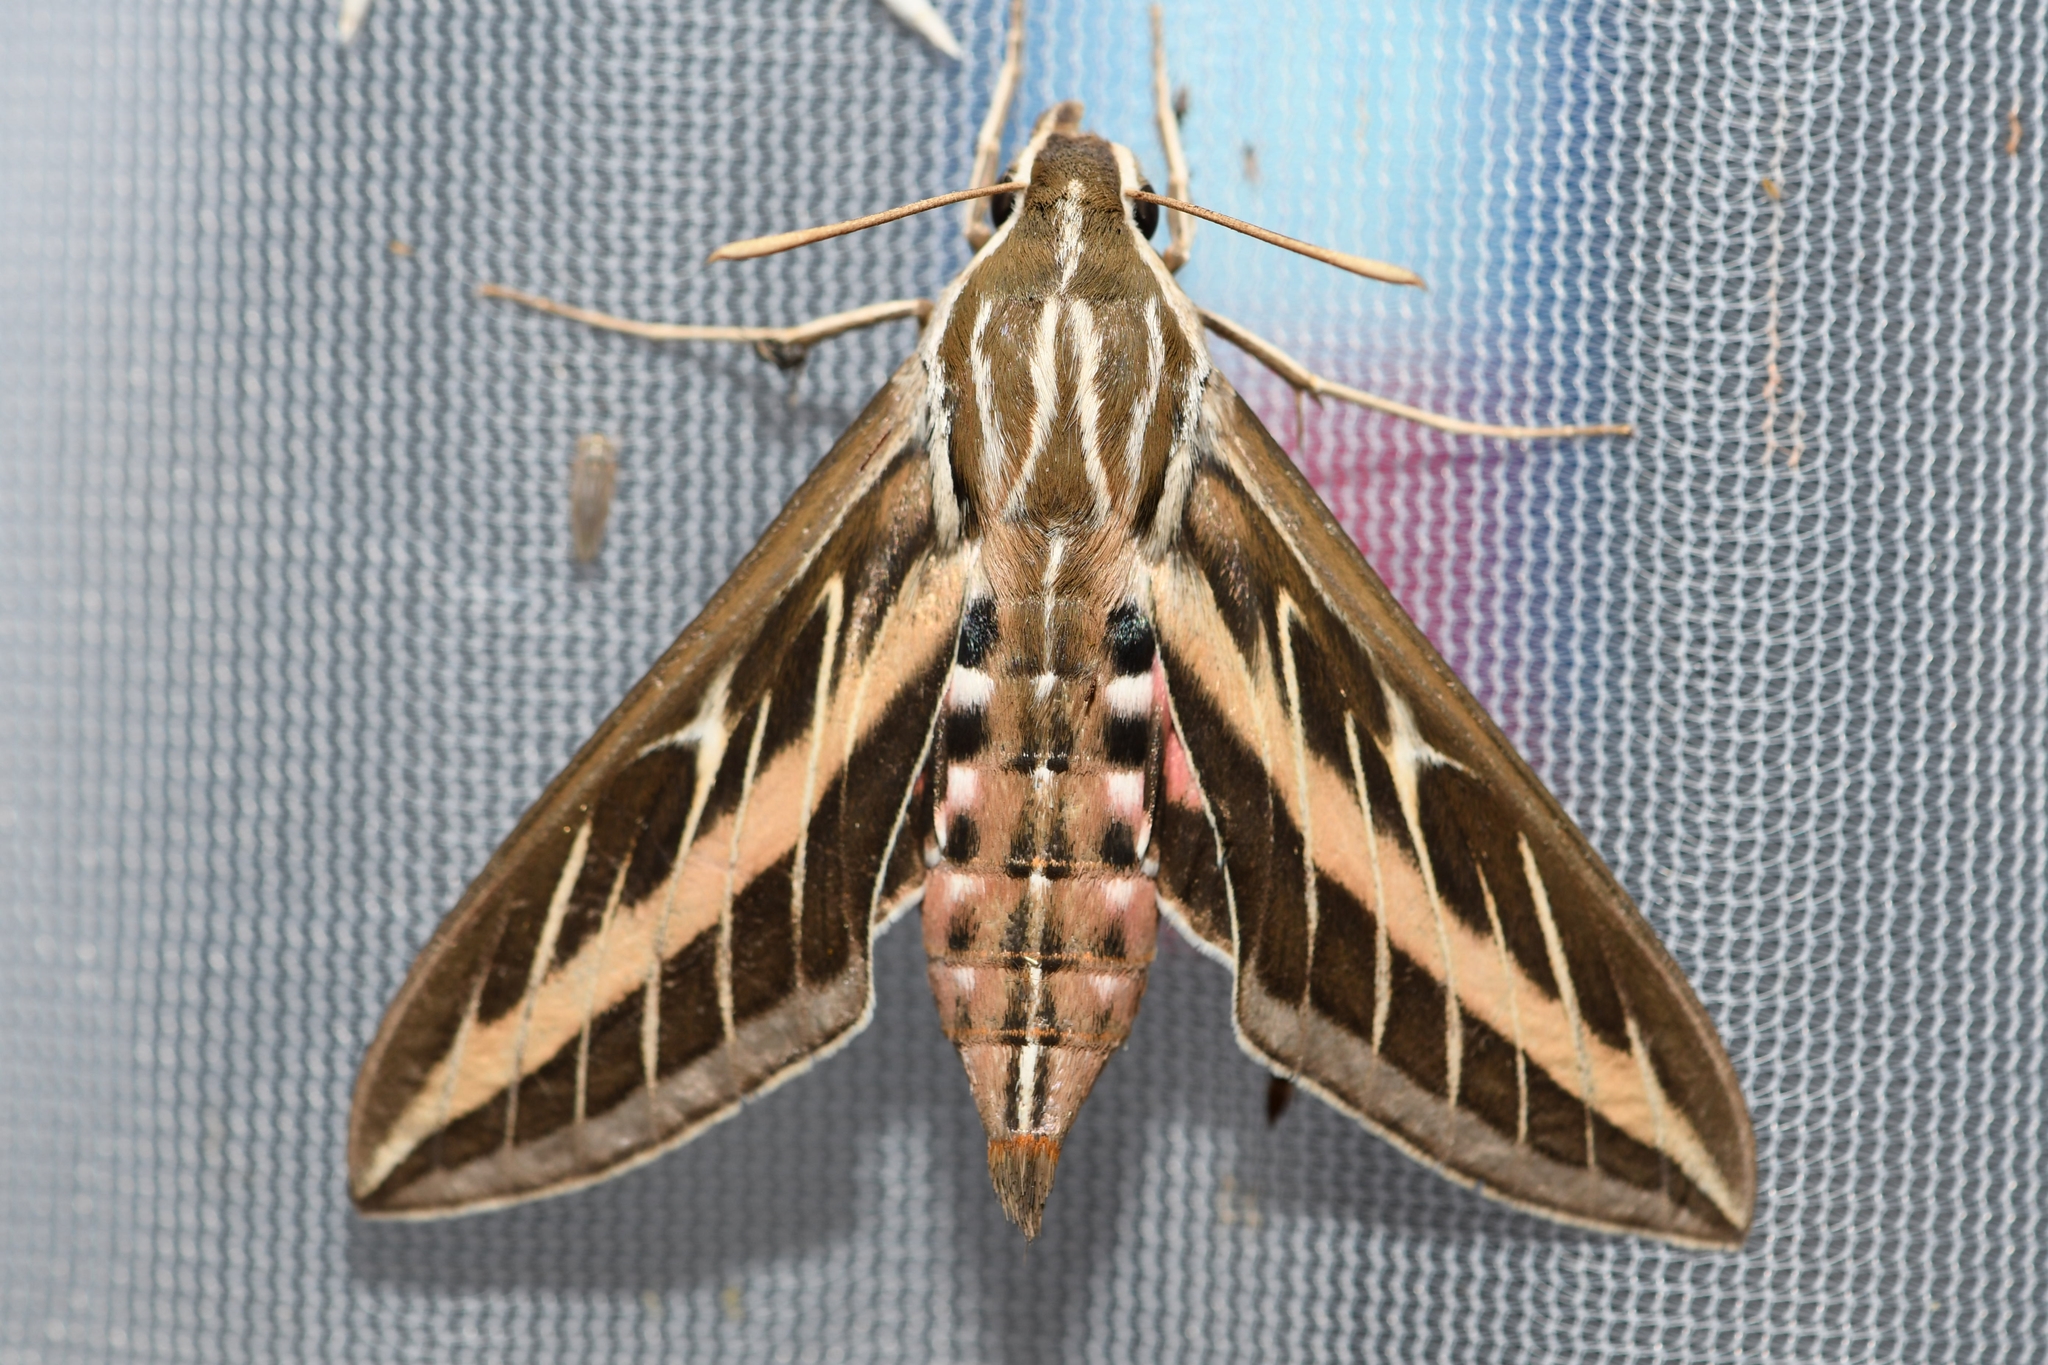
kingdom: Animalia
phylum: Arthropoda
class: Insecta
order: Lepidoptera
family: Sphingidae
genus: Hyles
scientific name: Hyles lineata
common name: White-lined sphinx
